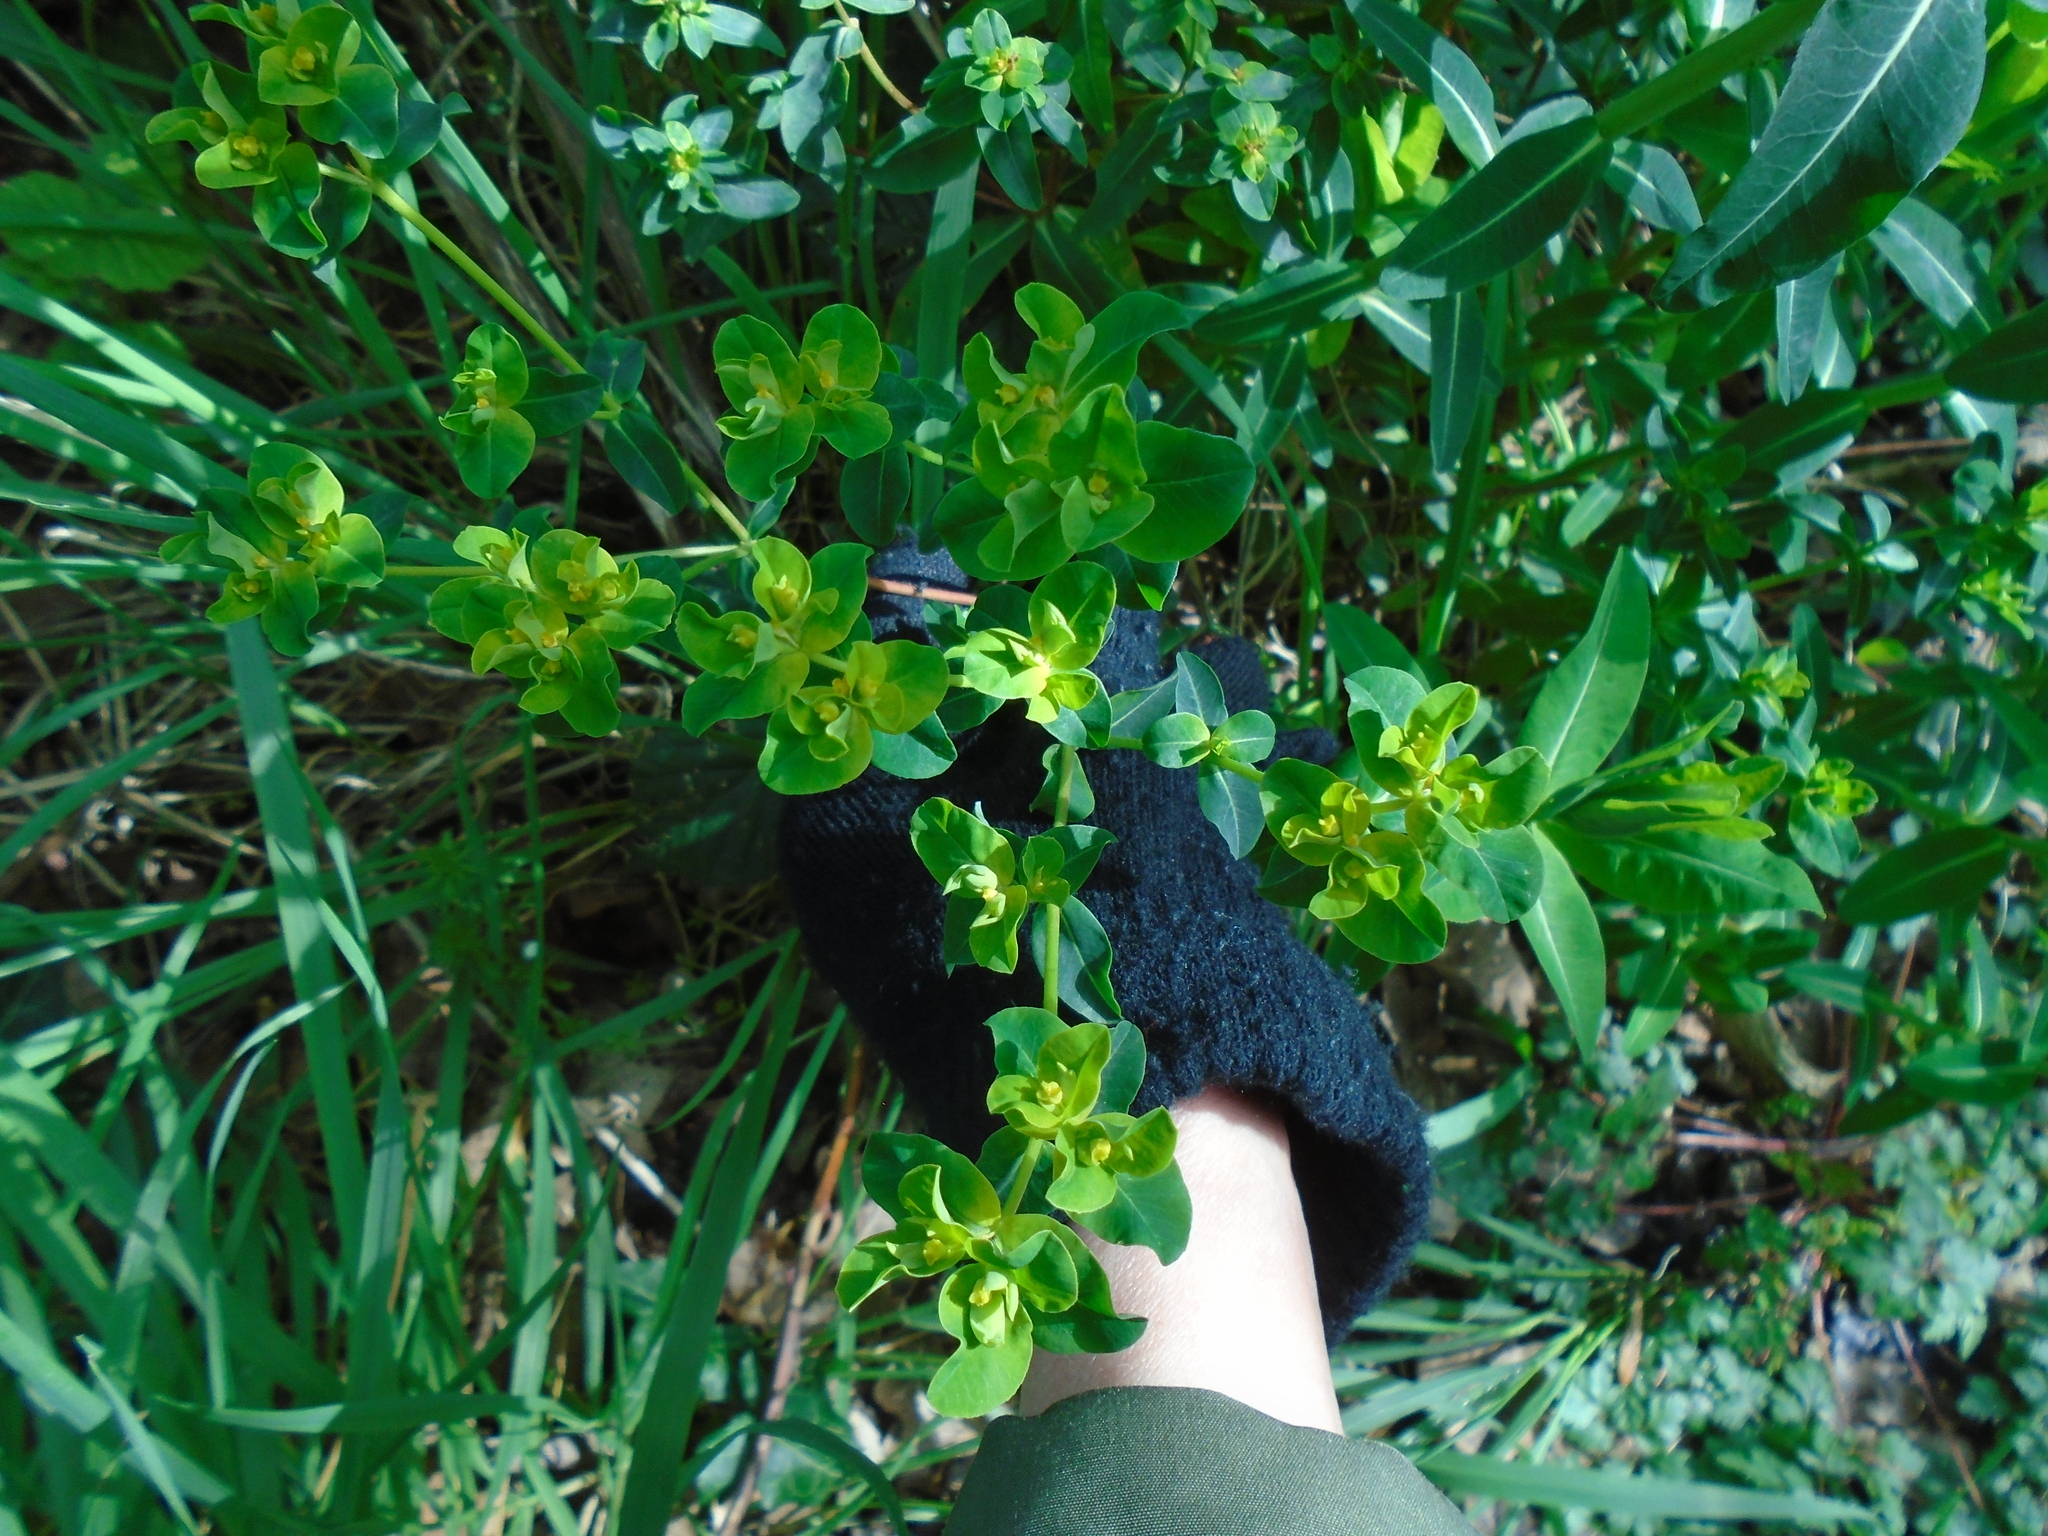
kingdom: Plantae
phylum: Tracheophyta
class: Magnoliopsida
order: Malpighiales
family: Euphorbiaceae
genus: Euphorbia
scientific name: Euphorbia oblongata
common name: Balkan spurge
